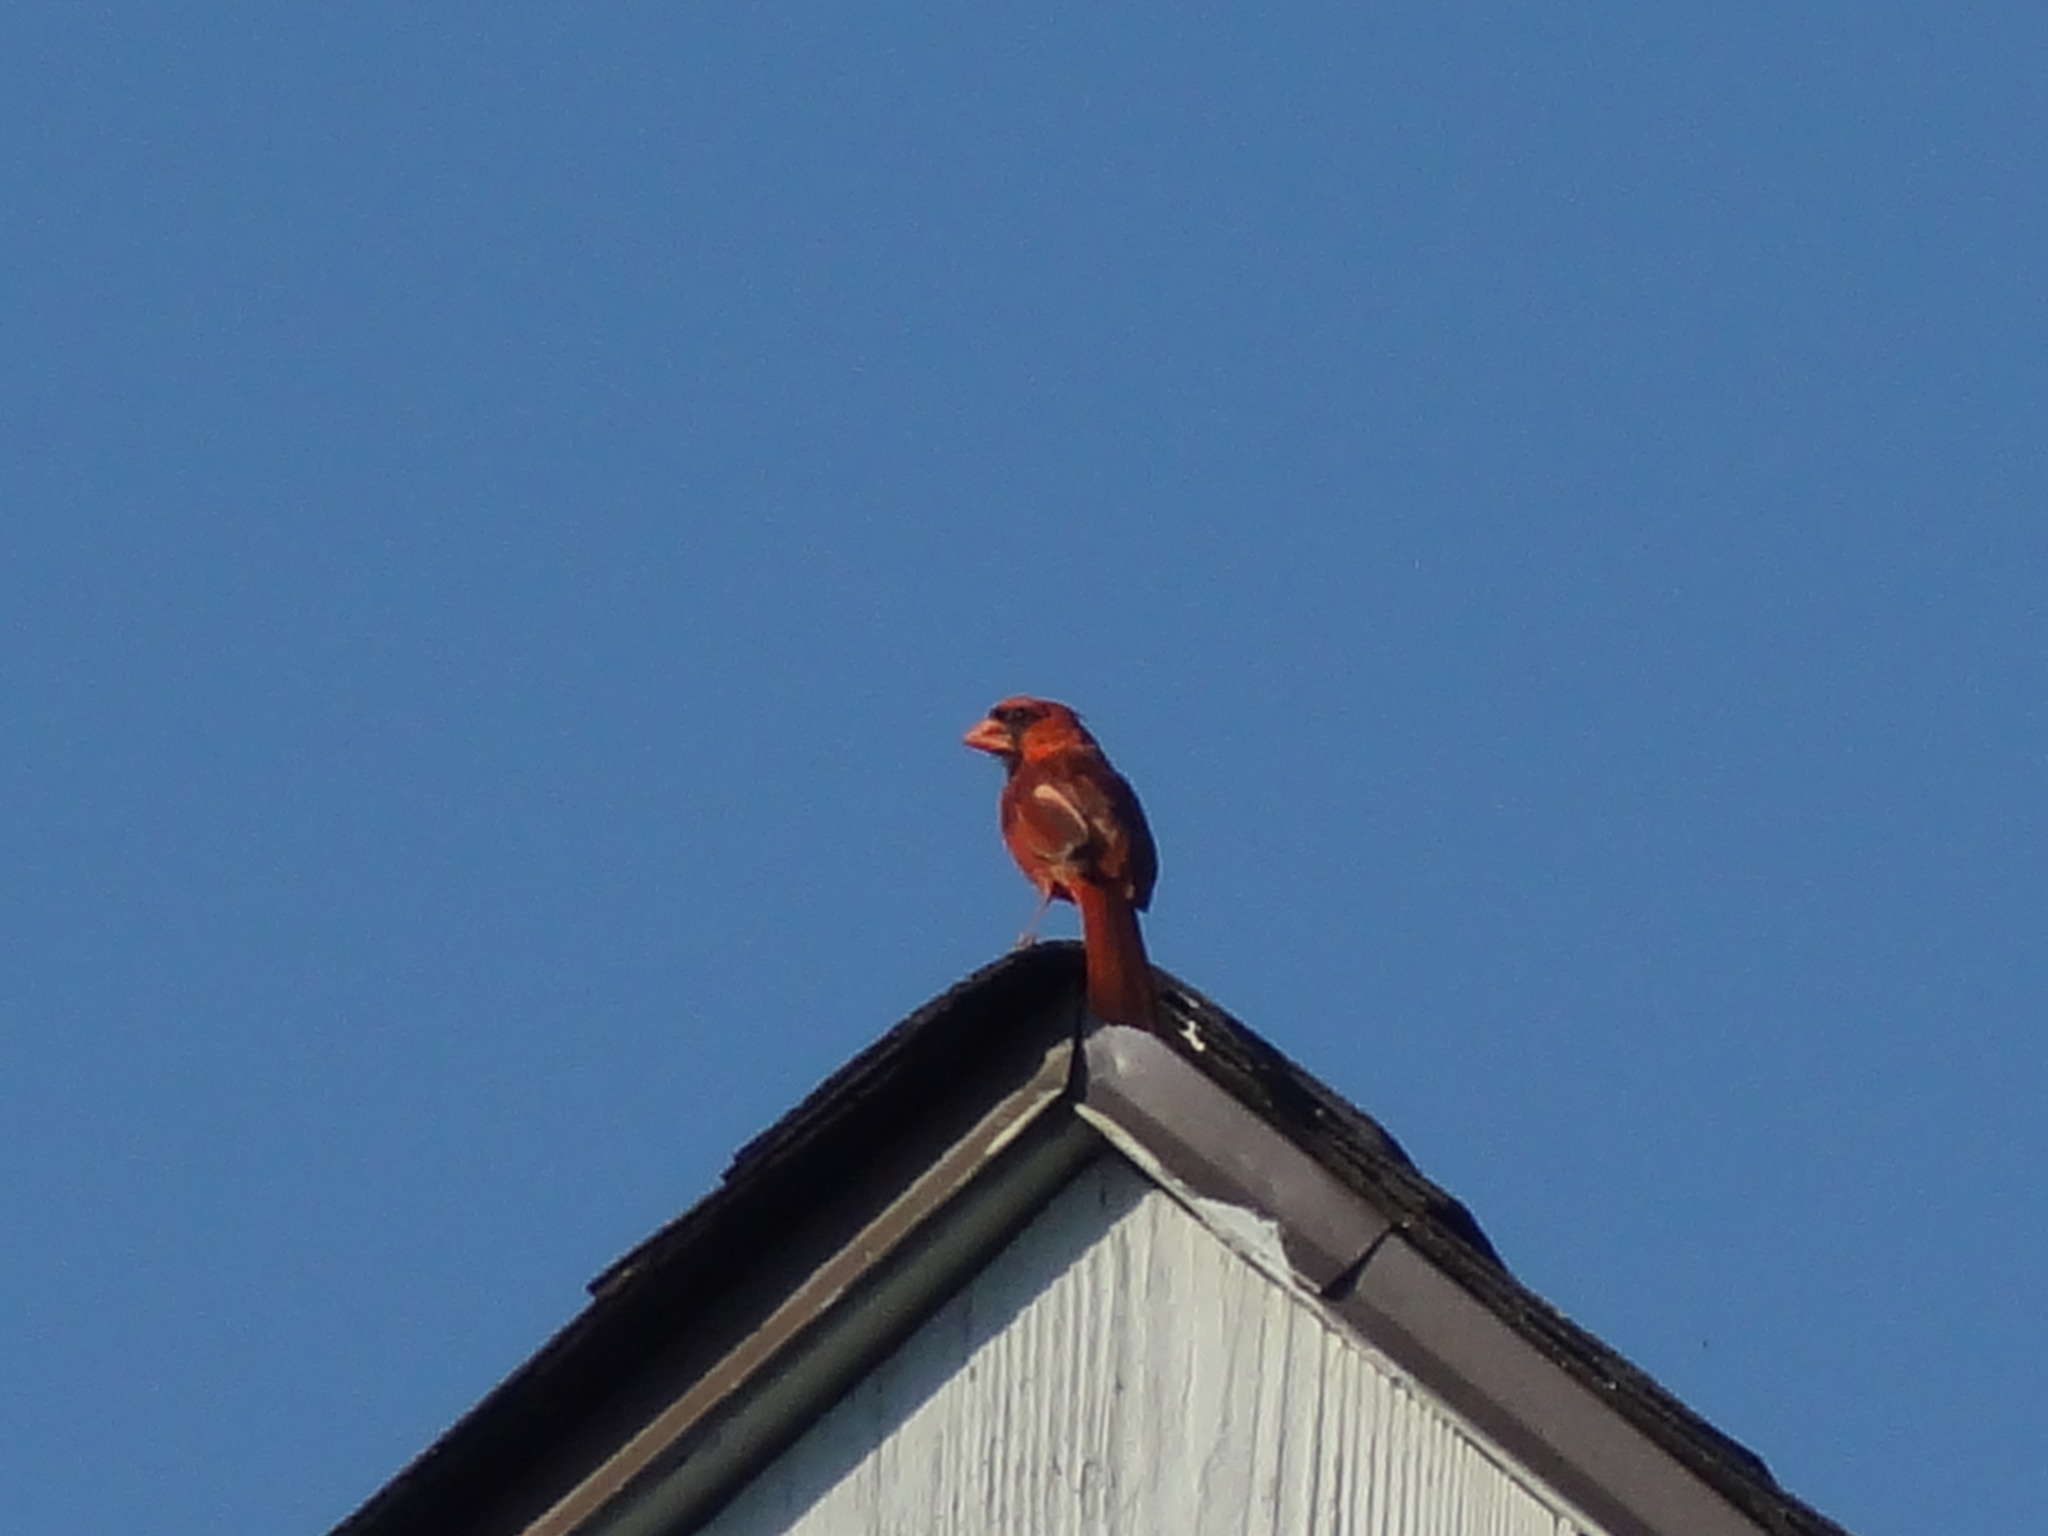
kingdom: Animalia
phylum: Chordata
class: Aves
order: Passeriformes
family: Cardinalidae
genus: Cardinalis
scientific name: Cardinalis cardinalis
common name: Northern cardinal
